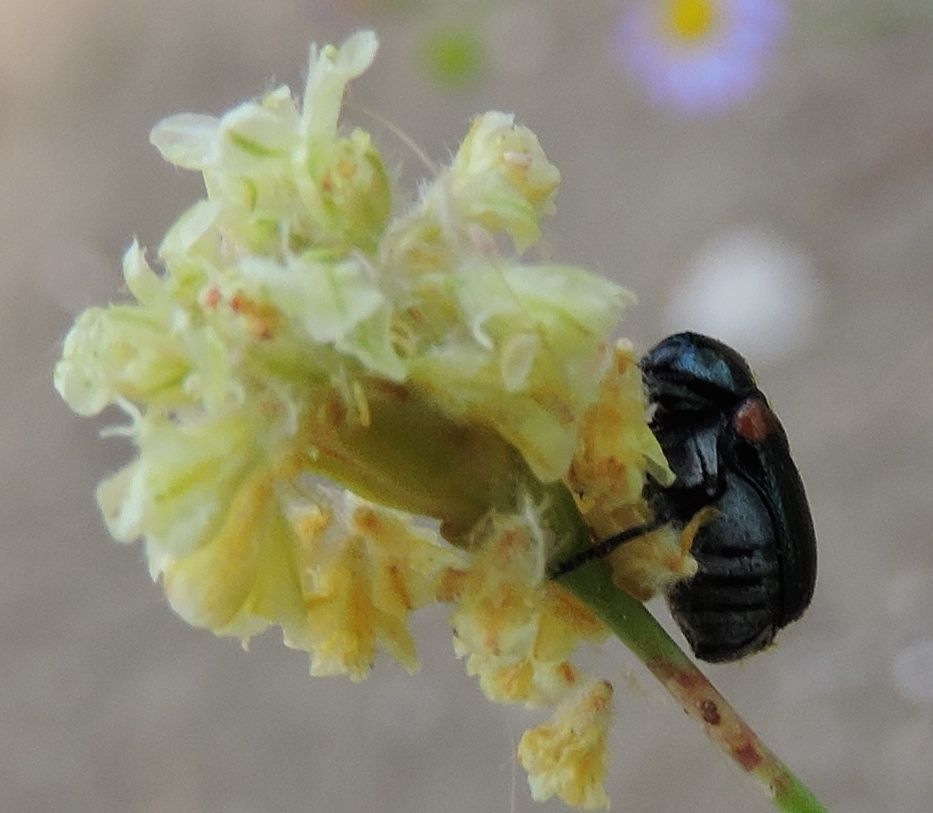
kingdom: Animalia
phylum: Arthropoda
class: Insecta
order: Coleoptera
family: Chrysomelidae
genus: Saxinis
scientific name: Saxinis saucia
